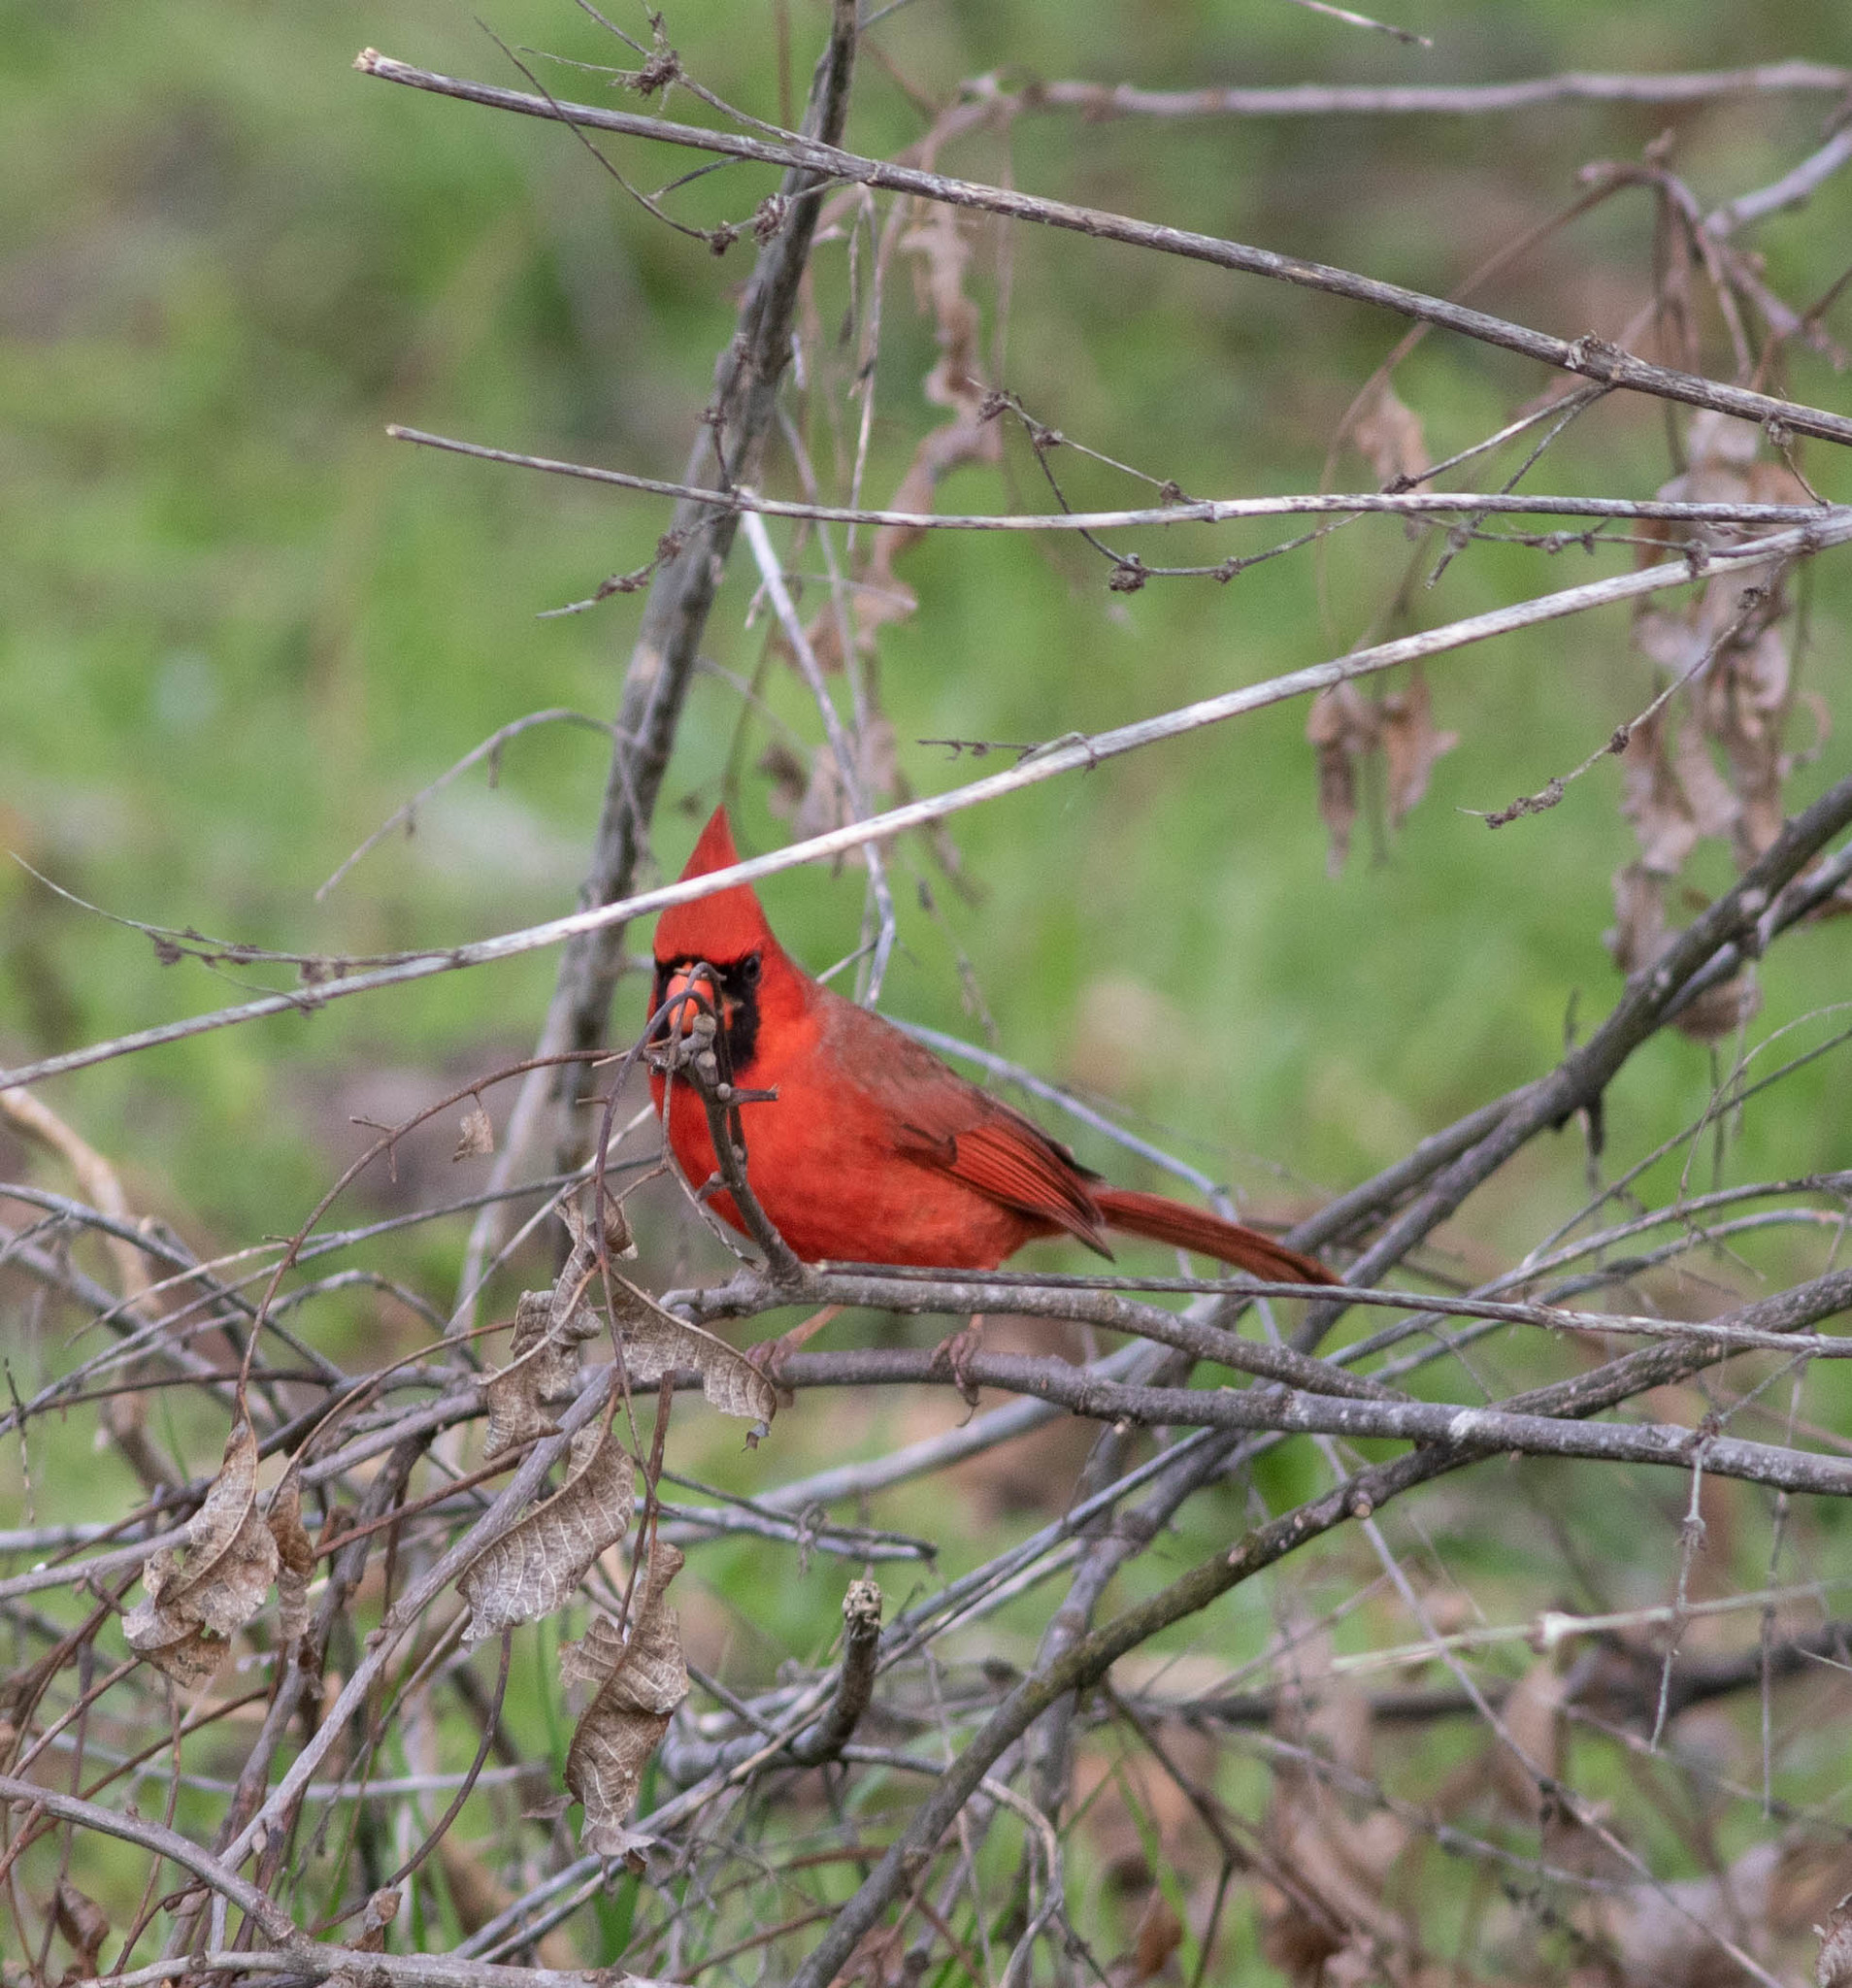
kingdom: Animalia
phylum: Chordata
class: Aves
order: Passeriformes
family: Cardinalidae
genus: Cardinalis
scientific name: Cardinalis cardinalis
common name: Northern cardinal
